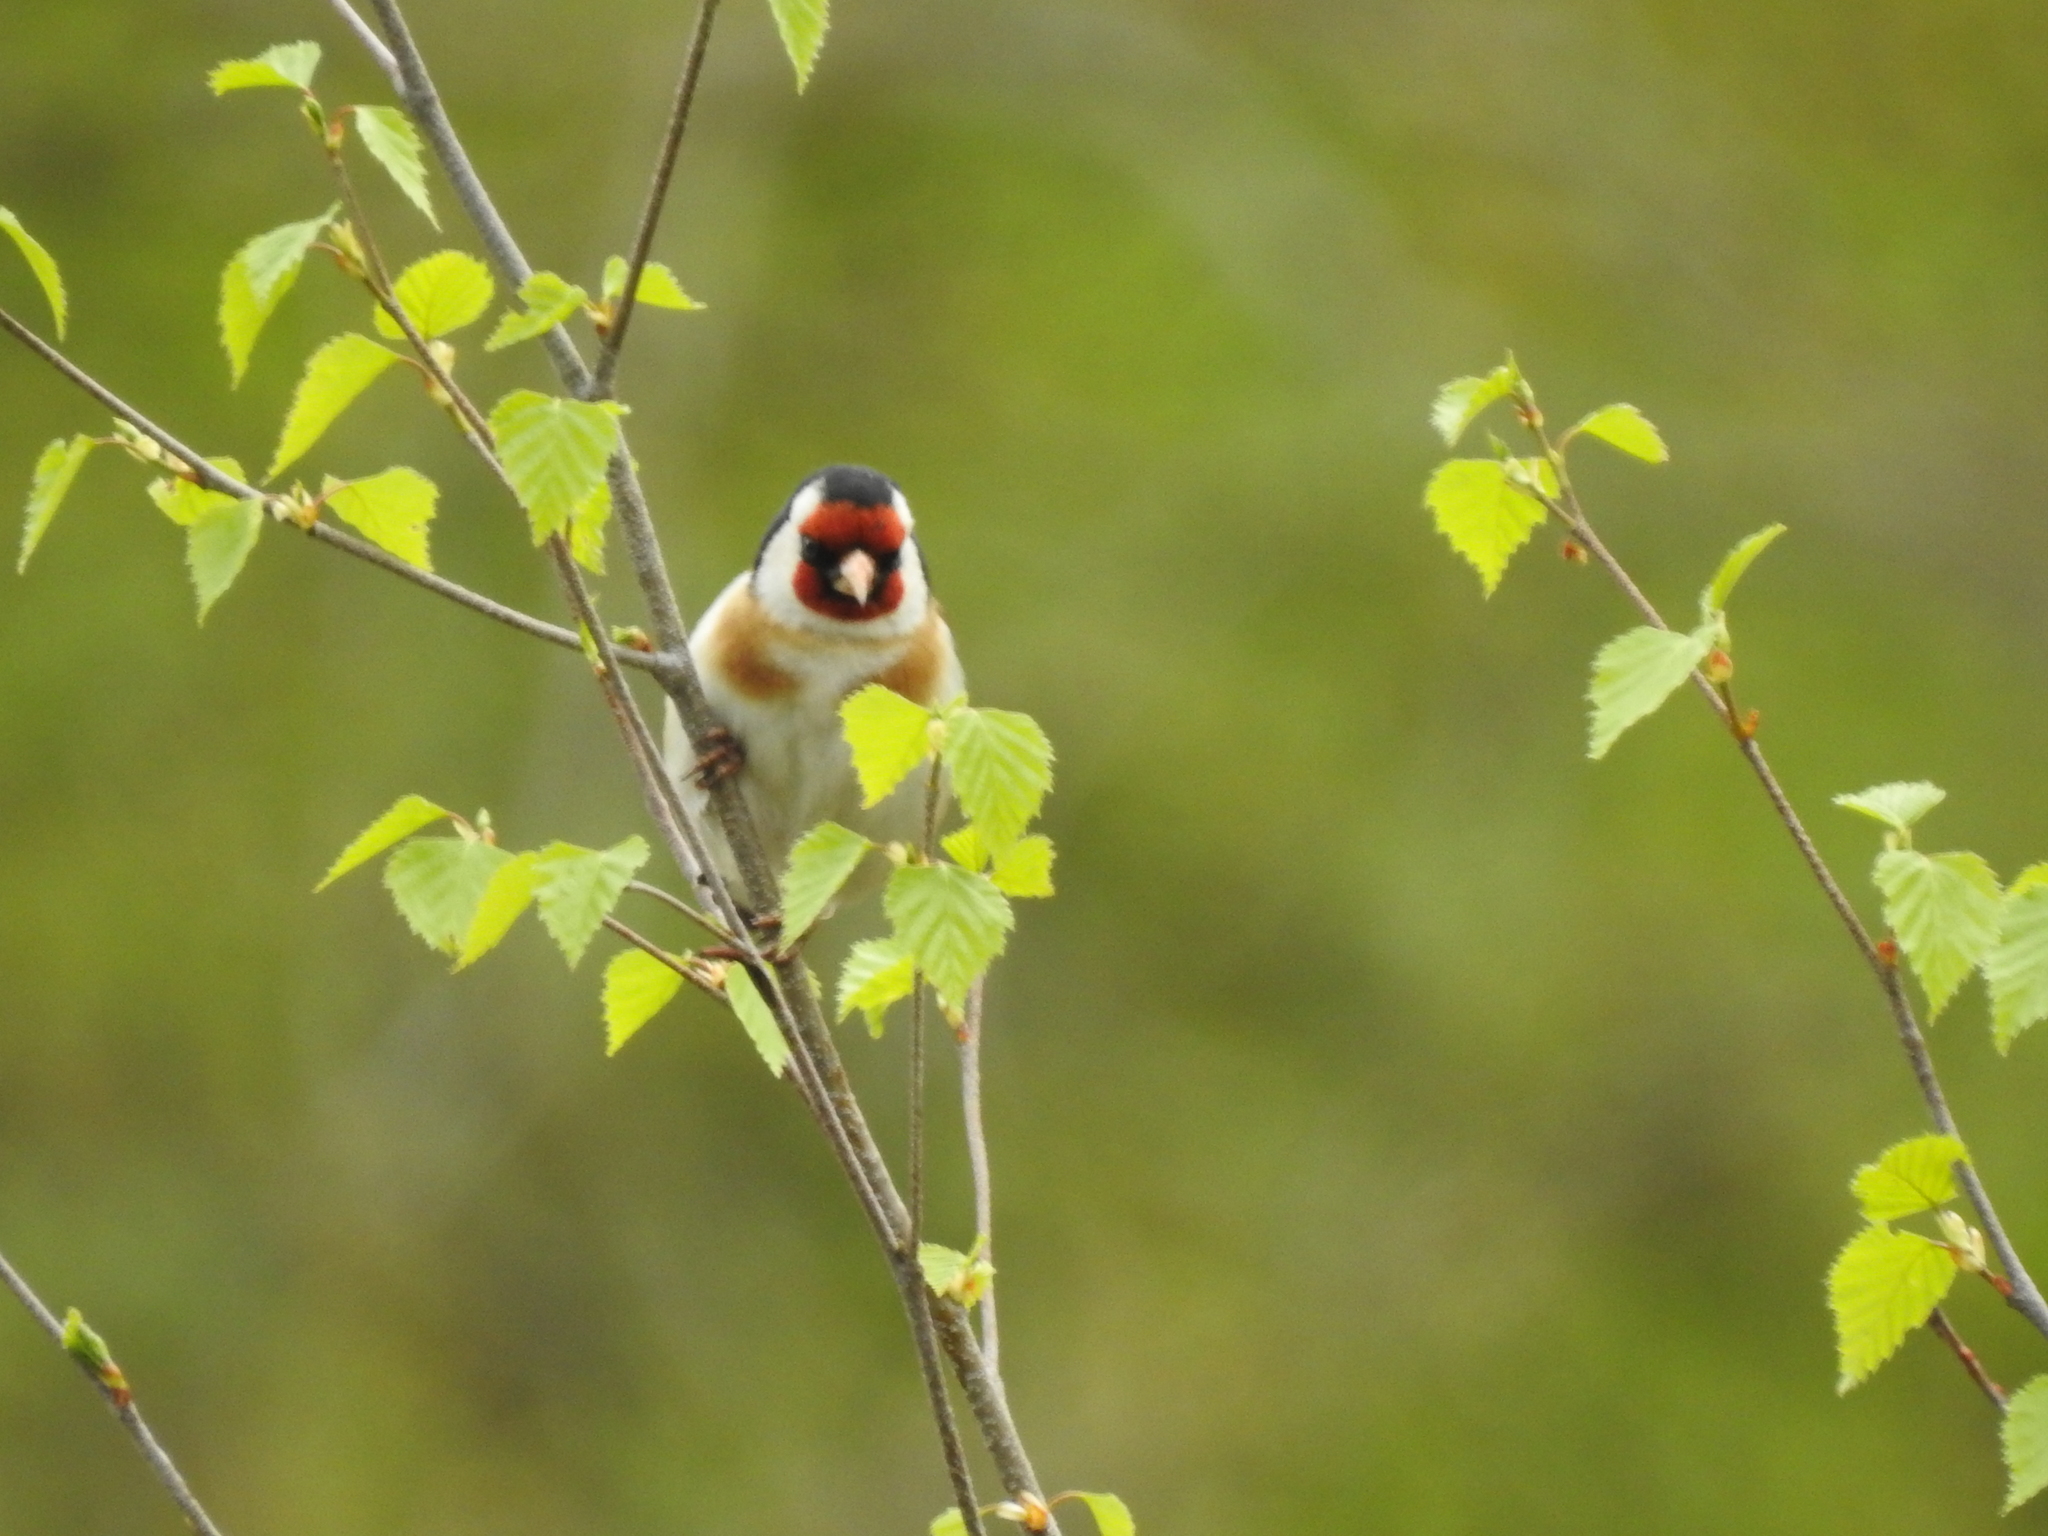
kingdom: Animalia
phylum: Chordata
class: Aves
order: Passeriformes
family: Fringillidae
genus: Carduelis
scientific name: Carduelis carduelis
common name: European goldfinch
